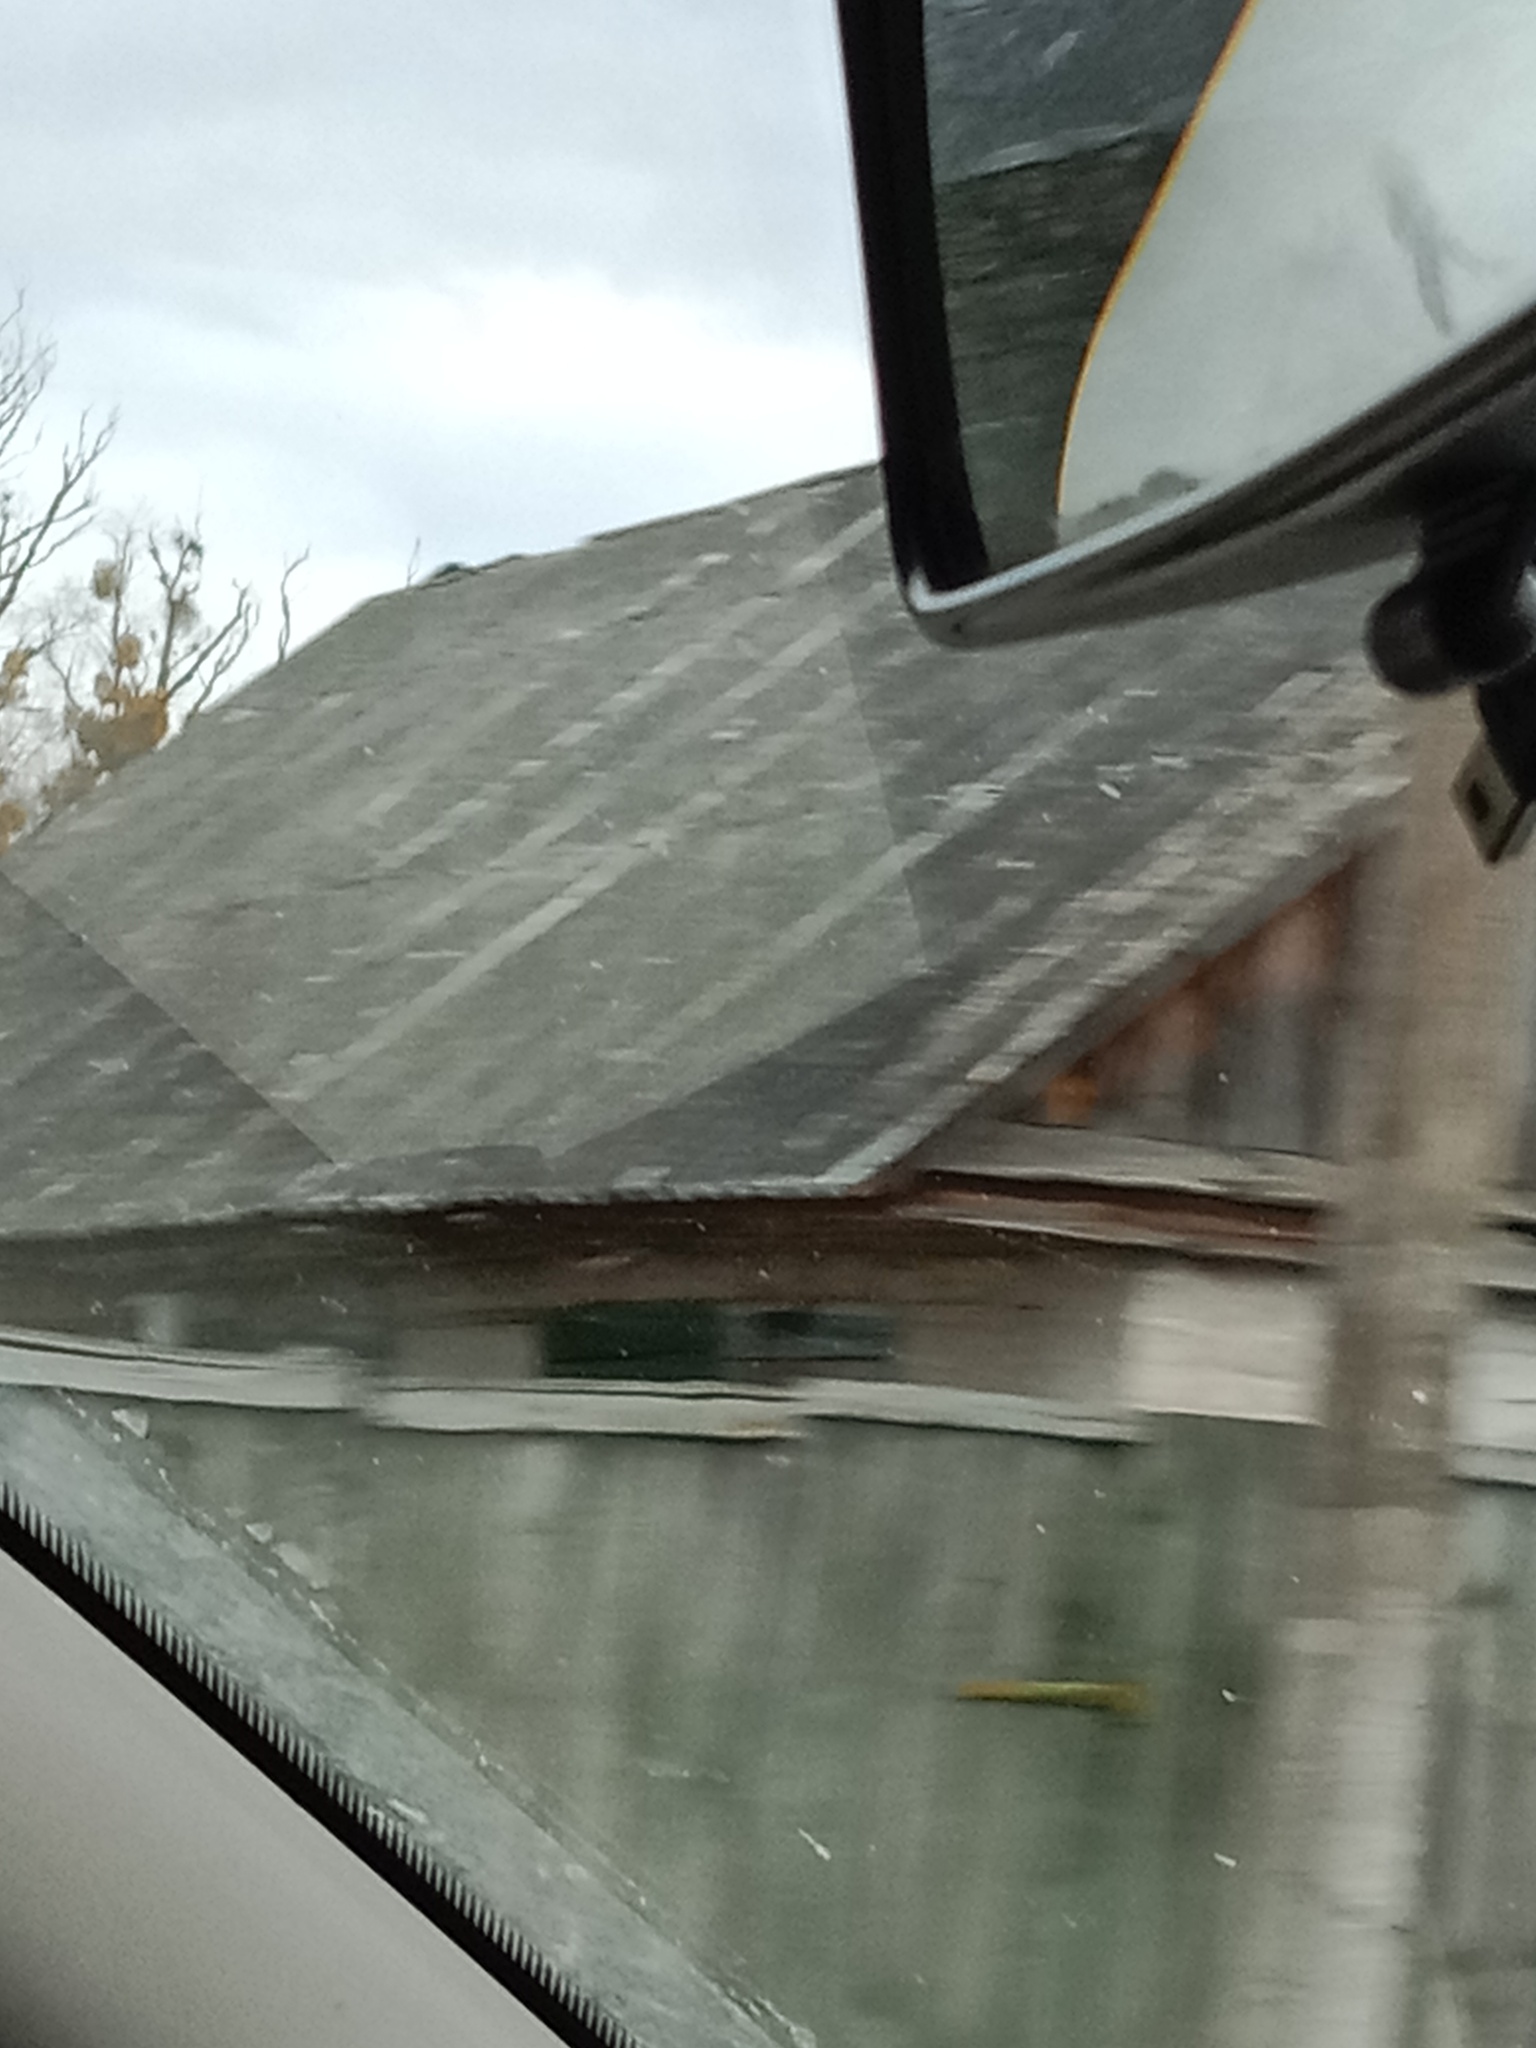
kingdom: Plantae
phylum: Tracheophyta
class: Magnoliopsida
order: Santalales
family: Viscaceae
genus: Viscum
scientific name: Viscum album
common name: Mistletoe
